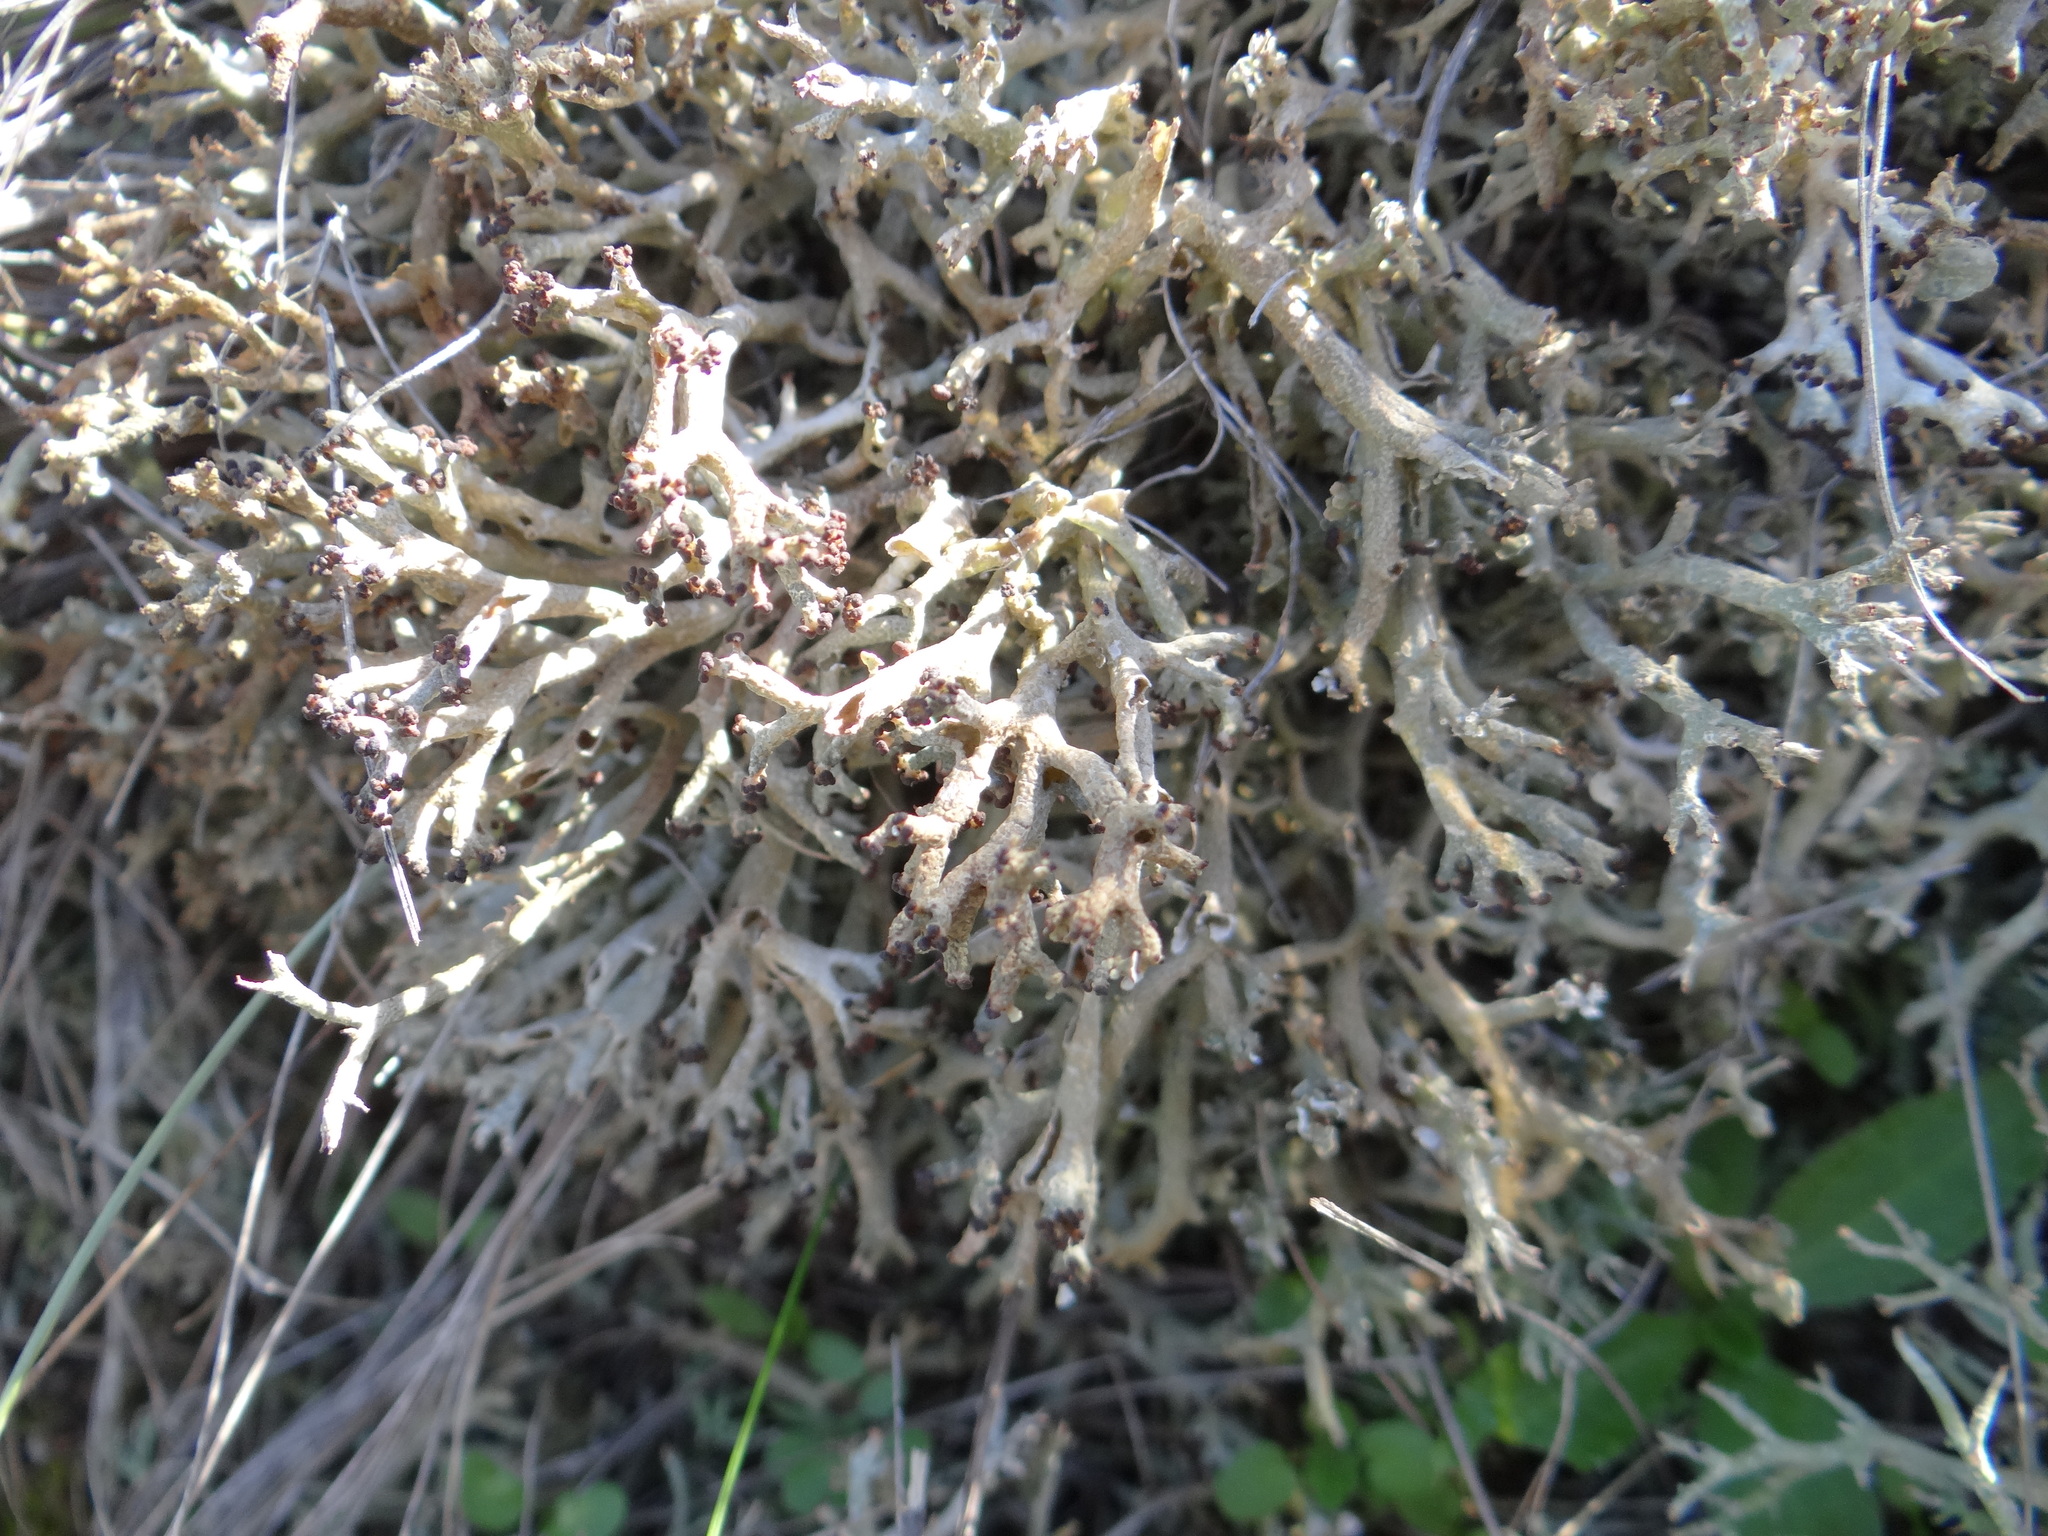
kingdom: Fungi
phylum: Ascomycota
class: Lecanoromycetes
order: Lecanorales
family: Cladoniaceae
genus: Cladonia
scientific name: Cladonia furcata
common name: Many-forked cladonia
